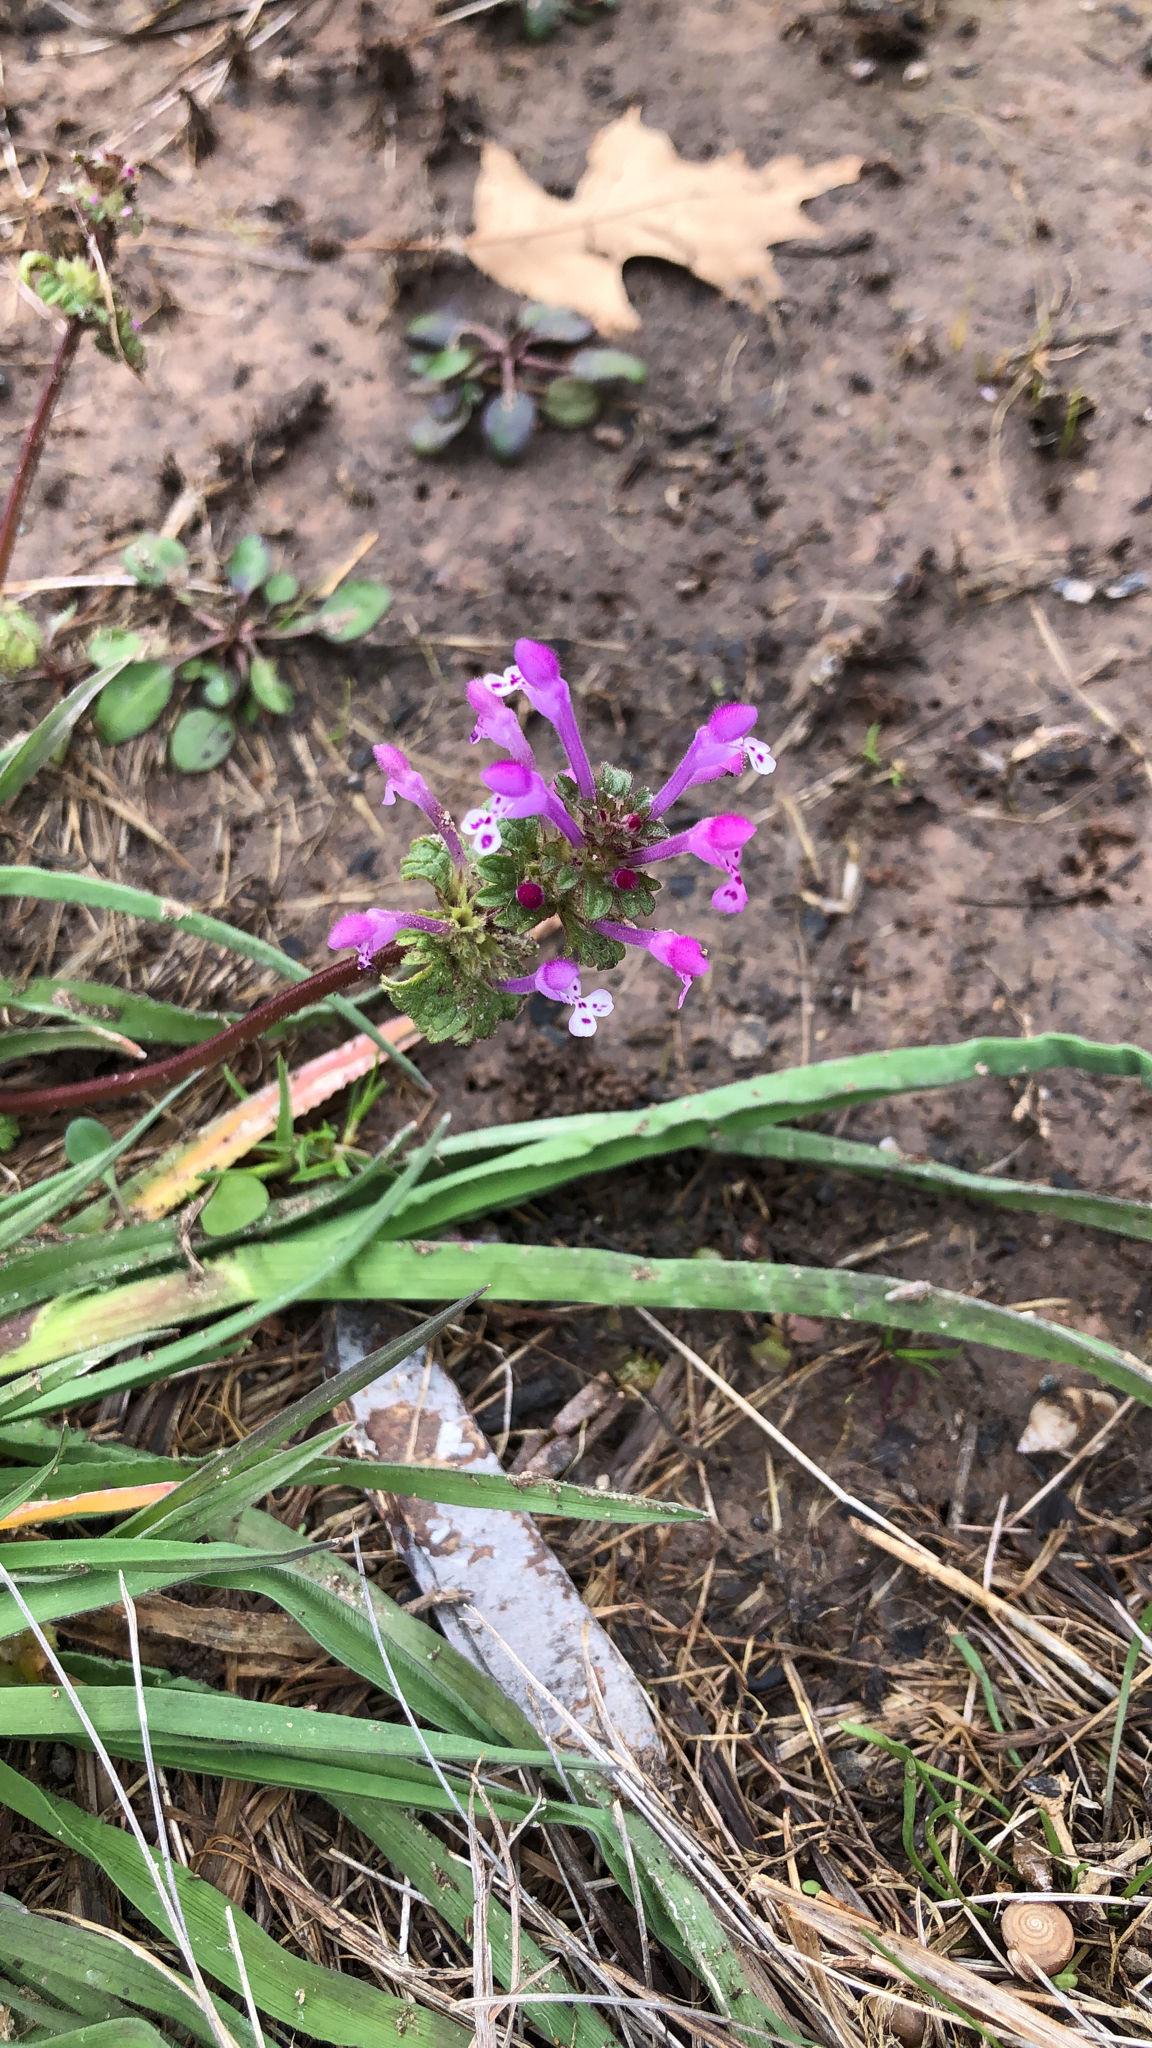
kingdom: Plantae
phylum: Tracheophyta
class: Magnoliopsida
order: Lamiales
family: Lamiaceae
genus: Lamium
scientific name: Lamium amplexicaule
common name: Henbit dead-nettle
